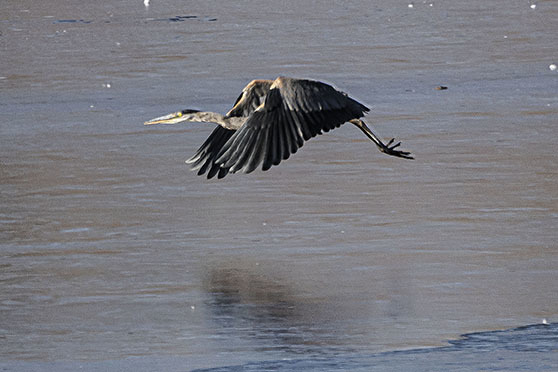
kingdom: Animalia
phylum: Chordata
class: Aves
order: Pelecaniformes
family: Ardeidae
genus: Ardea
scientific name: Ardea herodias
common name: Great blue heron
